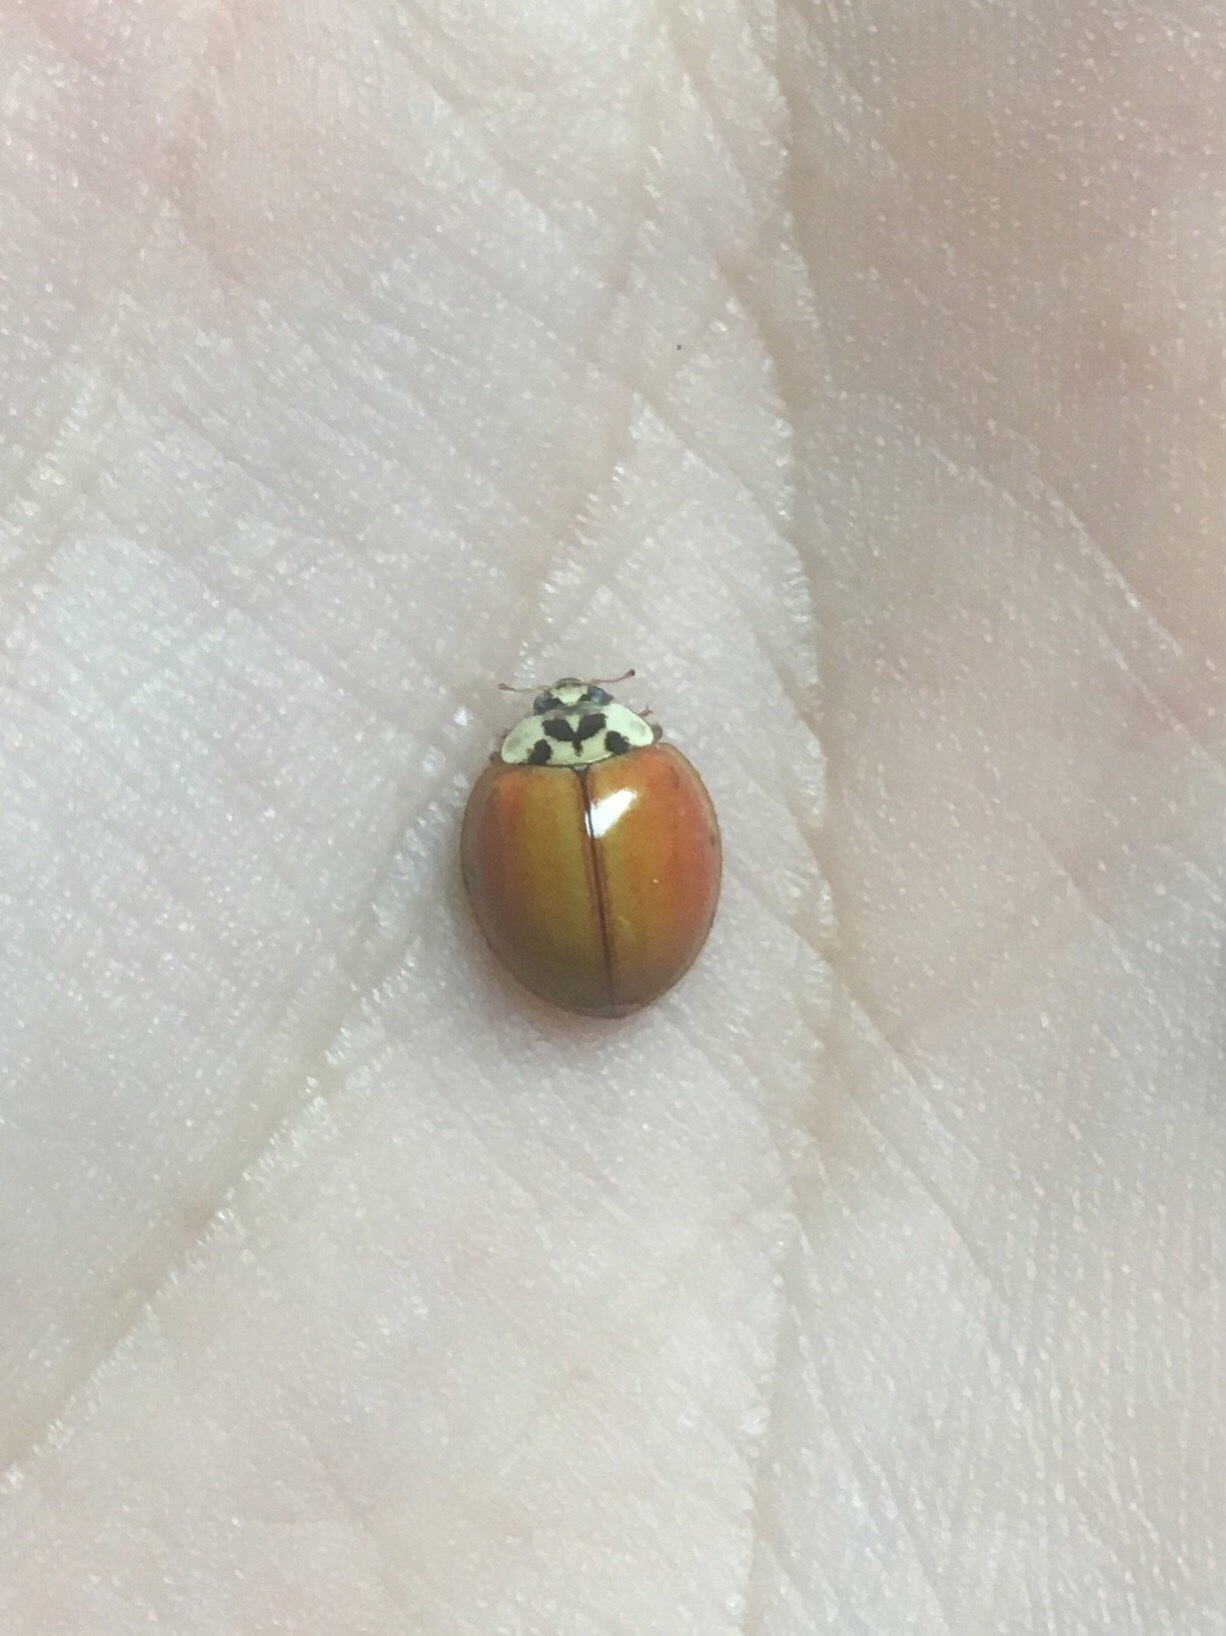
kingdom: Animalia
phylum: Arthropoda
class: Insecta
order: Coleoptera
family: Coccinellidae
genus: Harmonia
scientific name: Harmonia axyridis
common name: Harlequin ladybird
